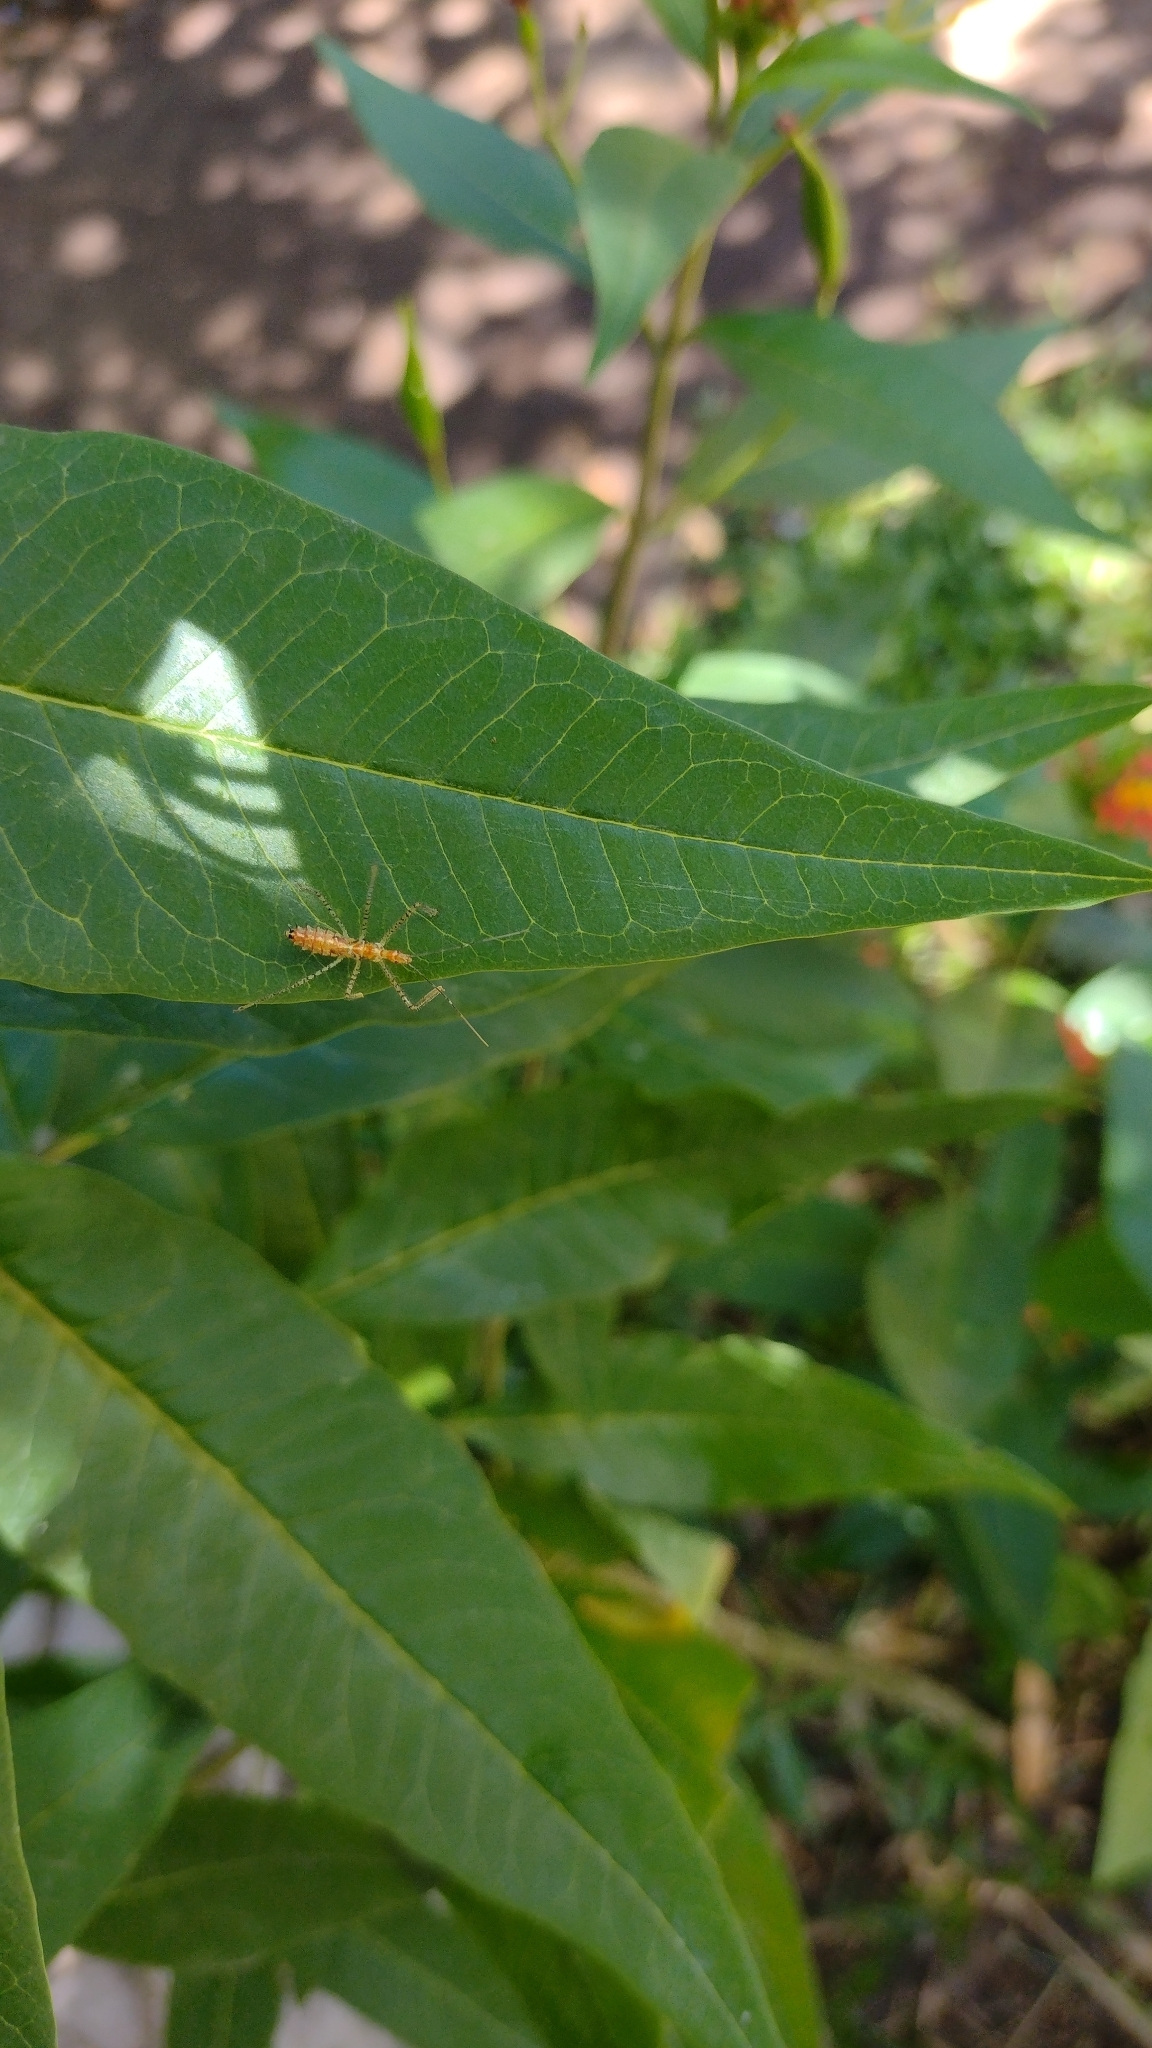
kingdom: Animalia
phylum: Arthropoda
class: Insecta
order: Hemiptera
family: Reduviidae
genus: Zelus
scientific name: Zelus renardii
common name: Assassin bug
